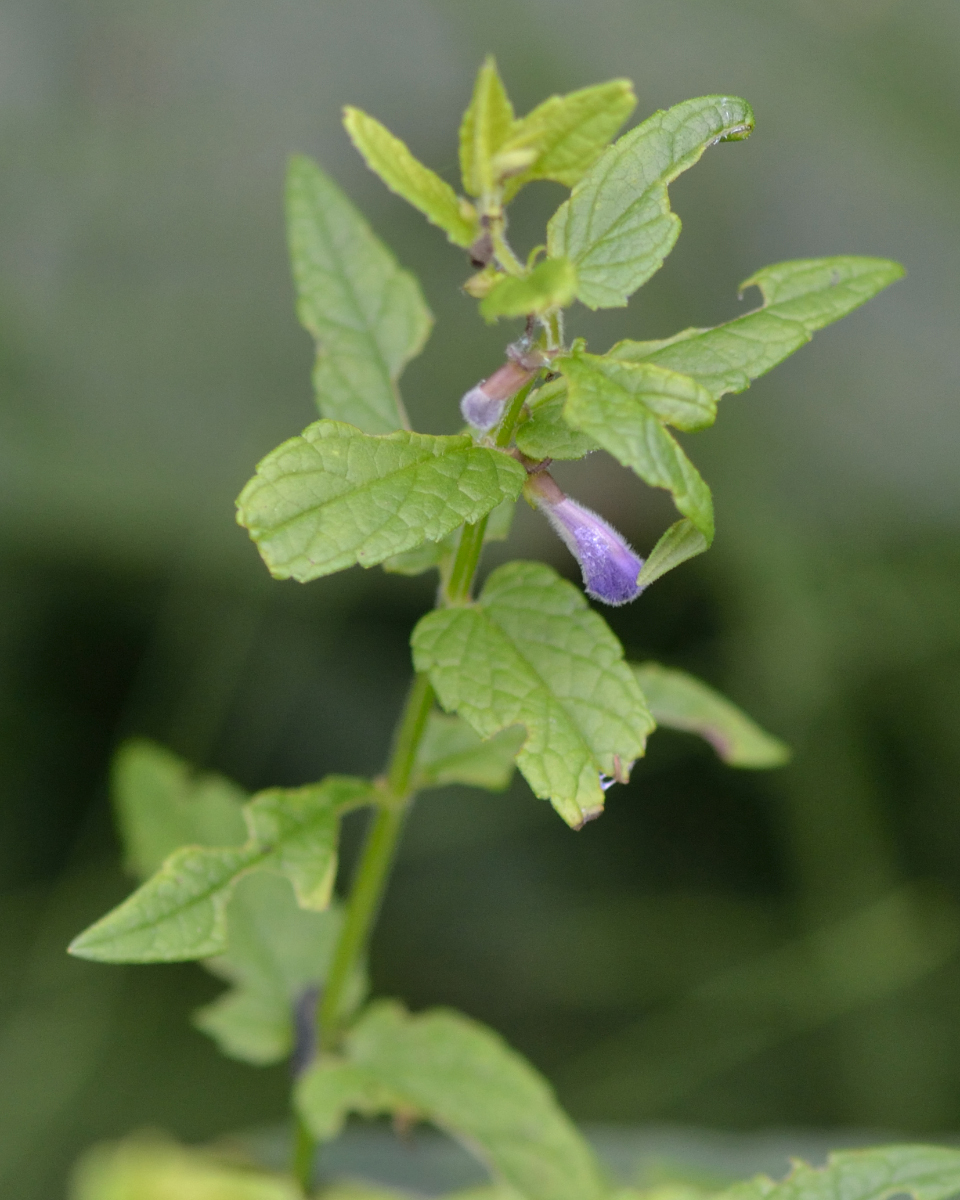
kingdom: Plantae
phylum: Tracheophyta
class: Magnoliopsida
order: Lamiales
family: Lamiaceae
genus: Scutellaria
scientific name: Scutellaria galericulata
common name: Skullcap
